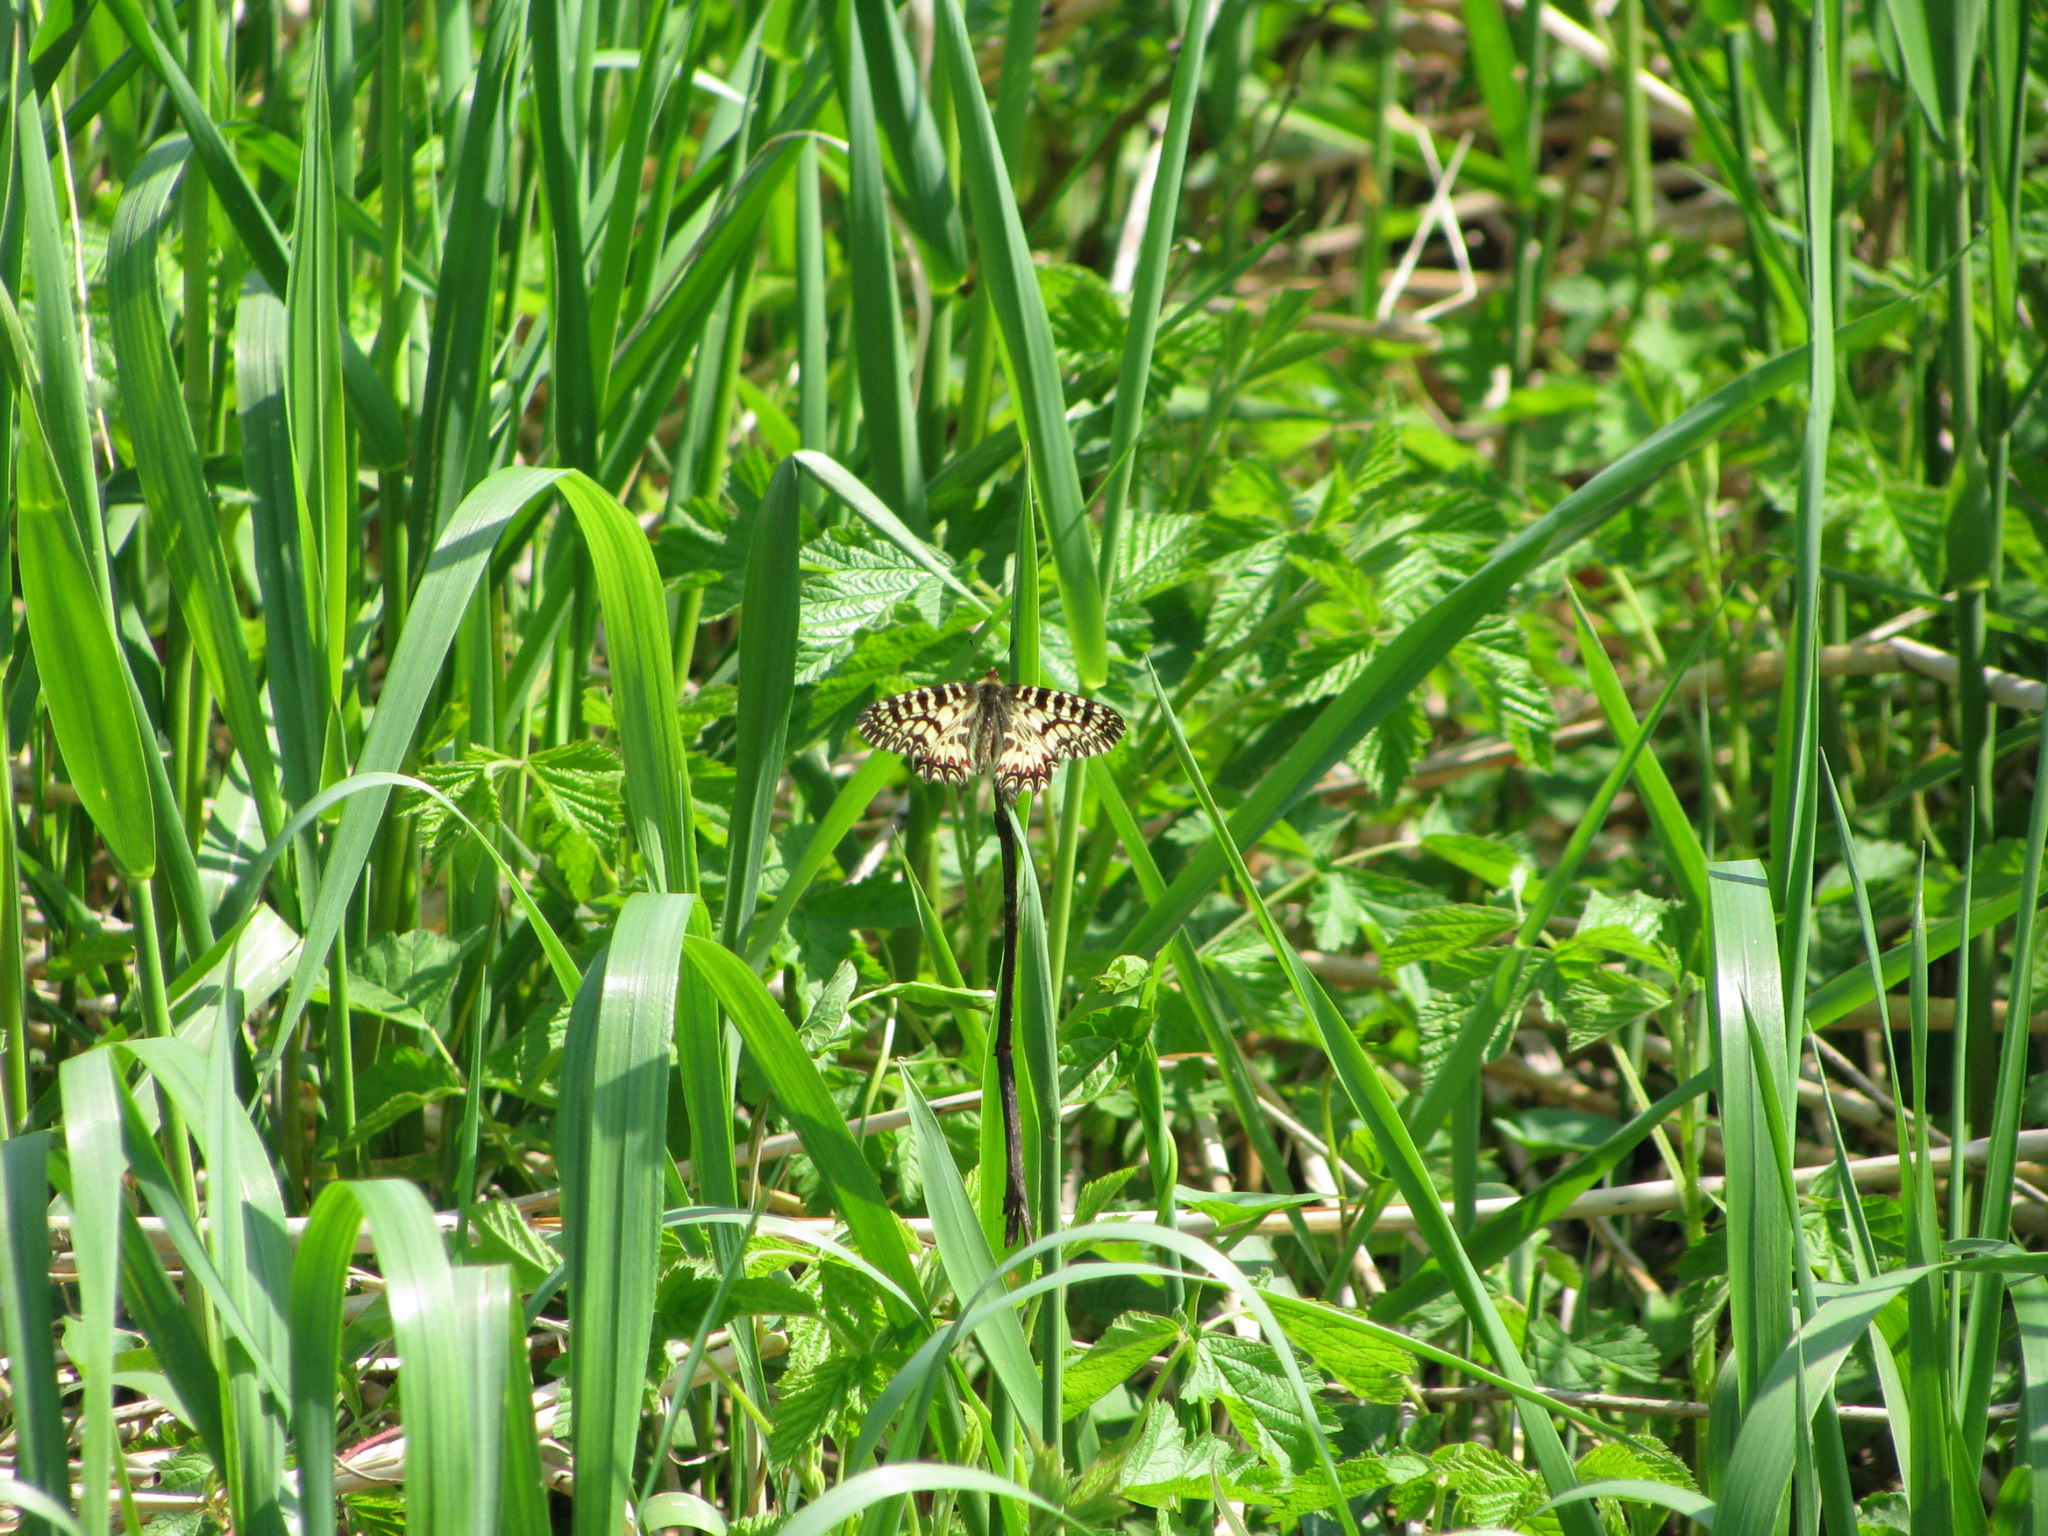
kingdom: Animalia
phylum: Arthropoda
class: Insecta
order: Lepidoptera
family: Papilionidae
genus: Zerynthia
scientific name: Zerynthia polyxena
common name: Southern festoon
